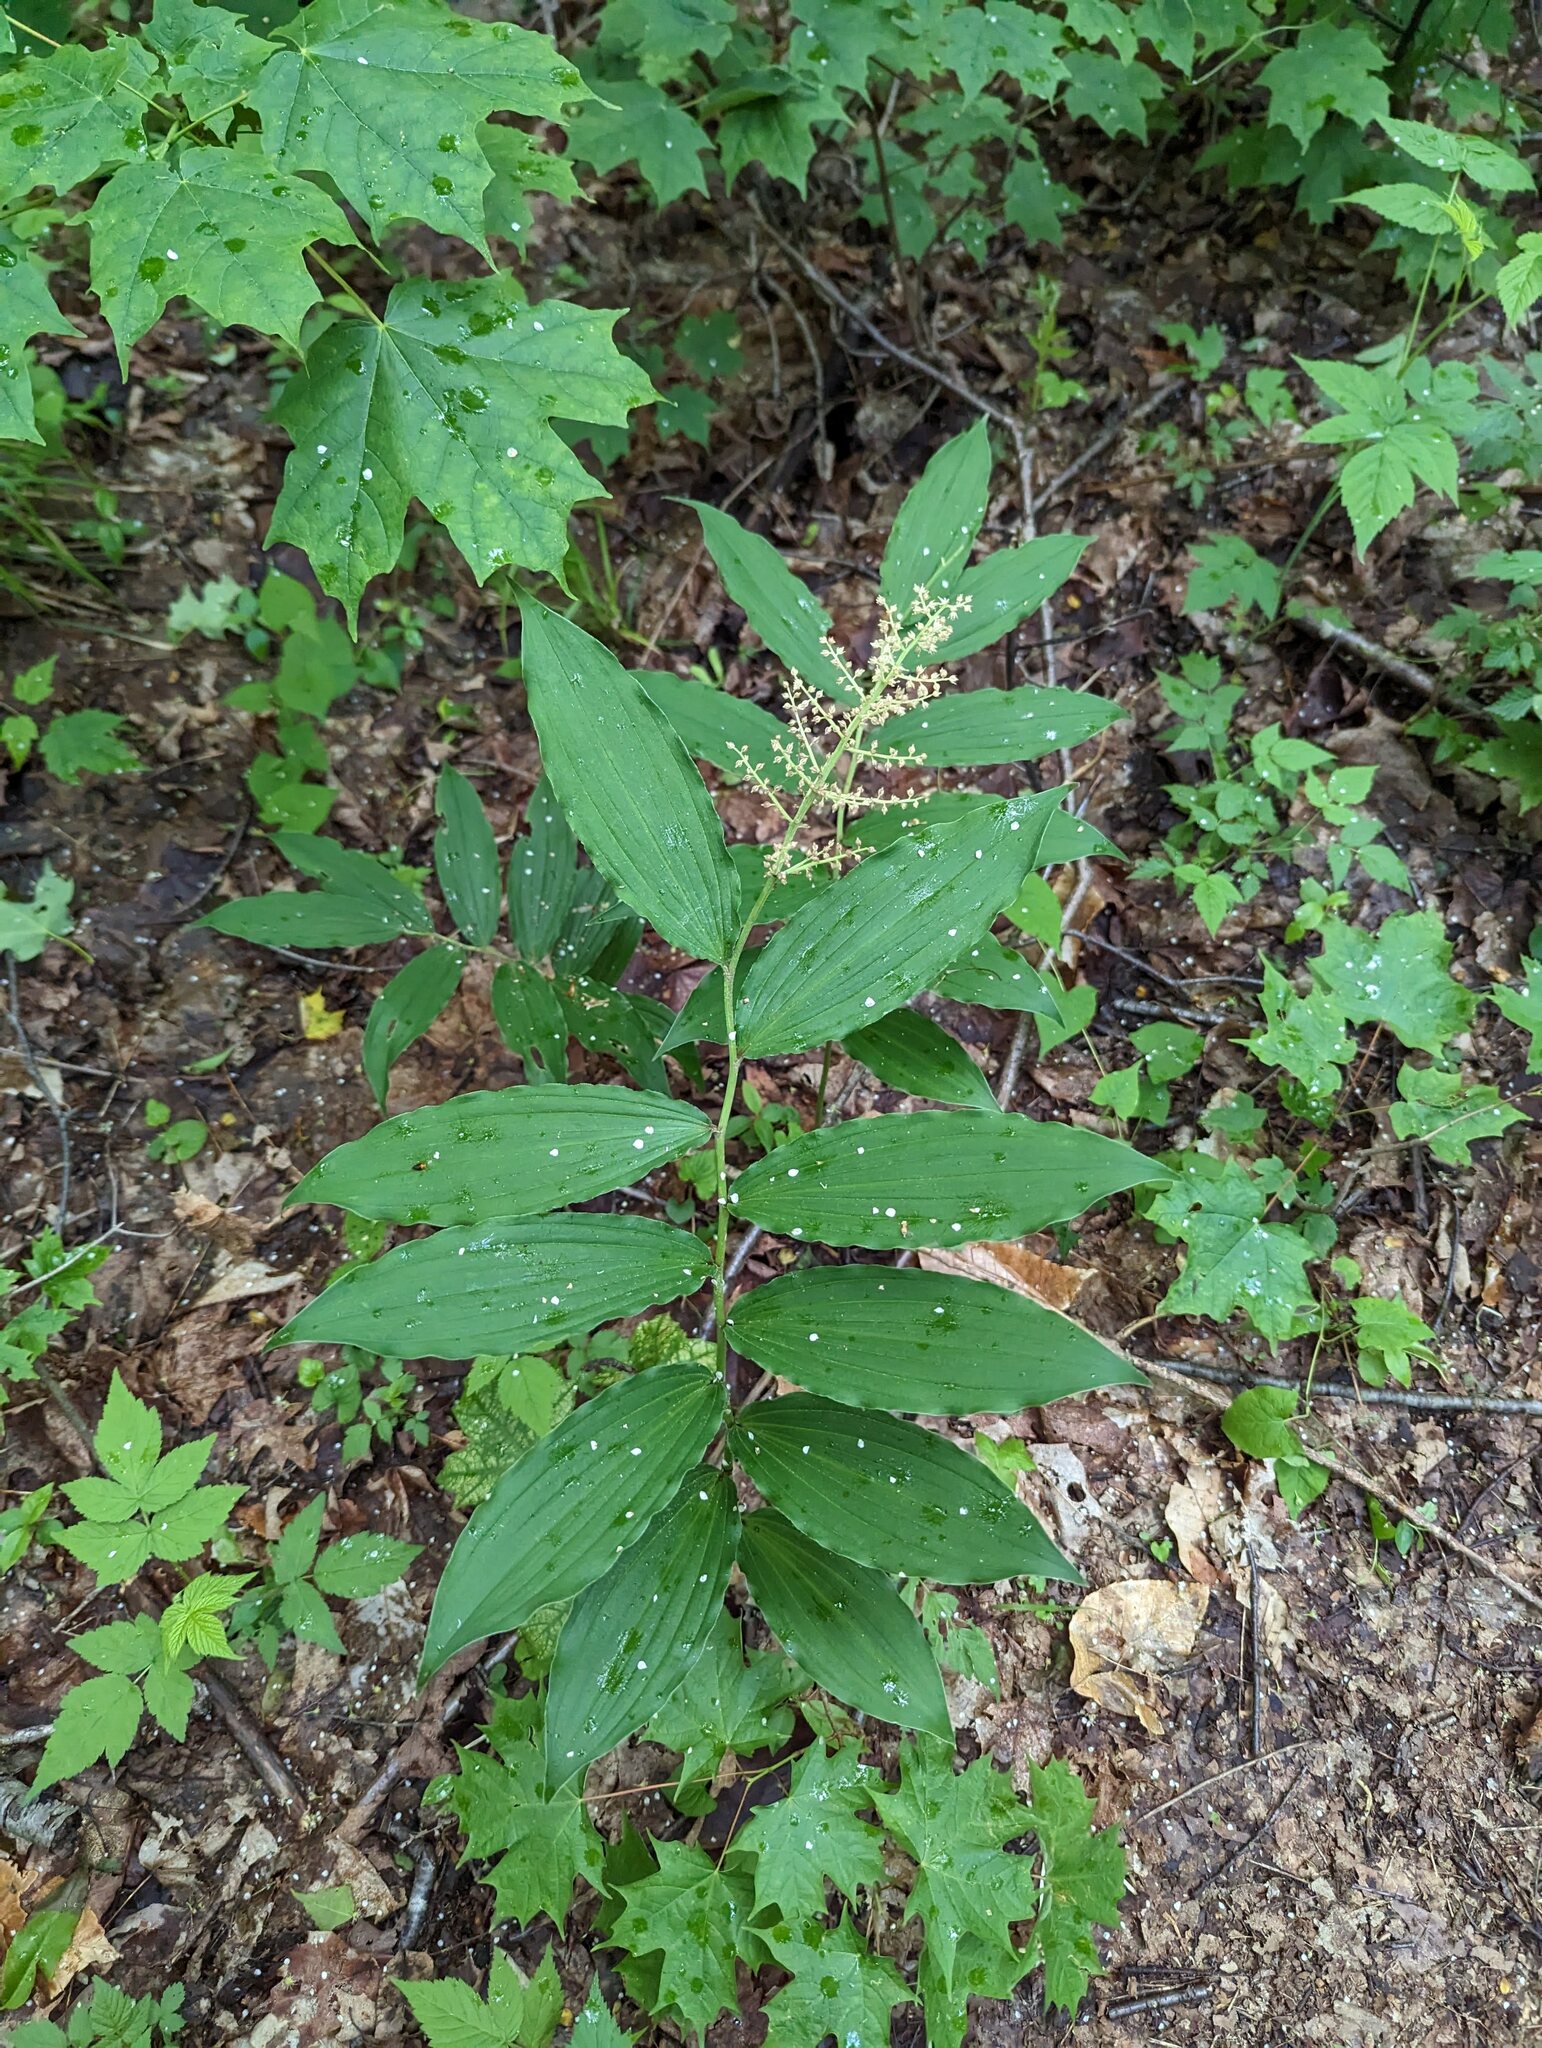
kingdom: Plantae
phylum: Tracheophyta
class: Liliopsida
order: Asparagales
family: Asparagaceae
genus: Maianthemum
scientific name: Maianthemum racemosum
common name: False spikenard
